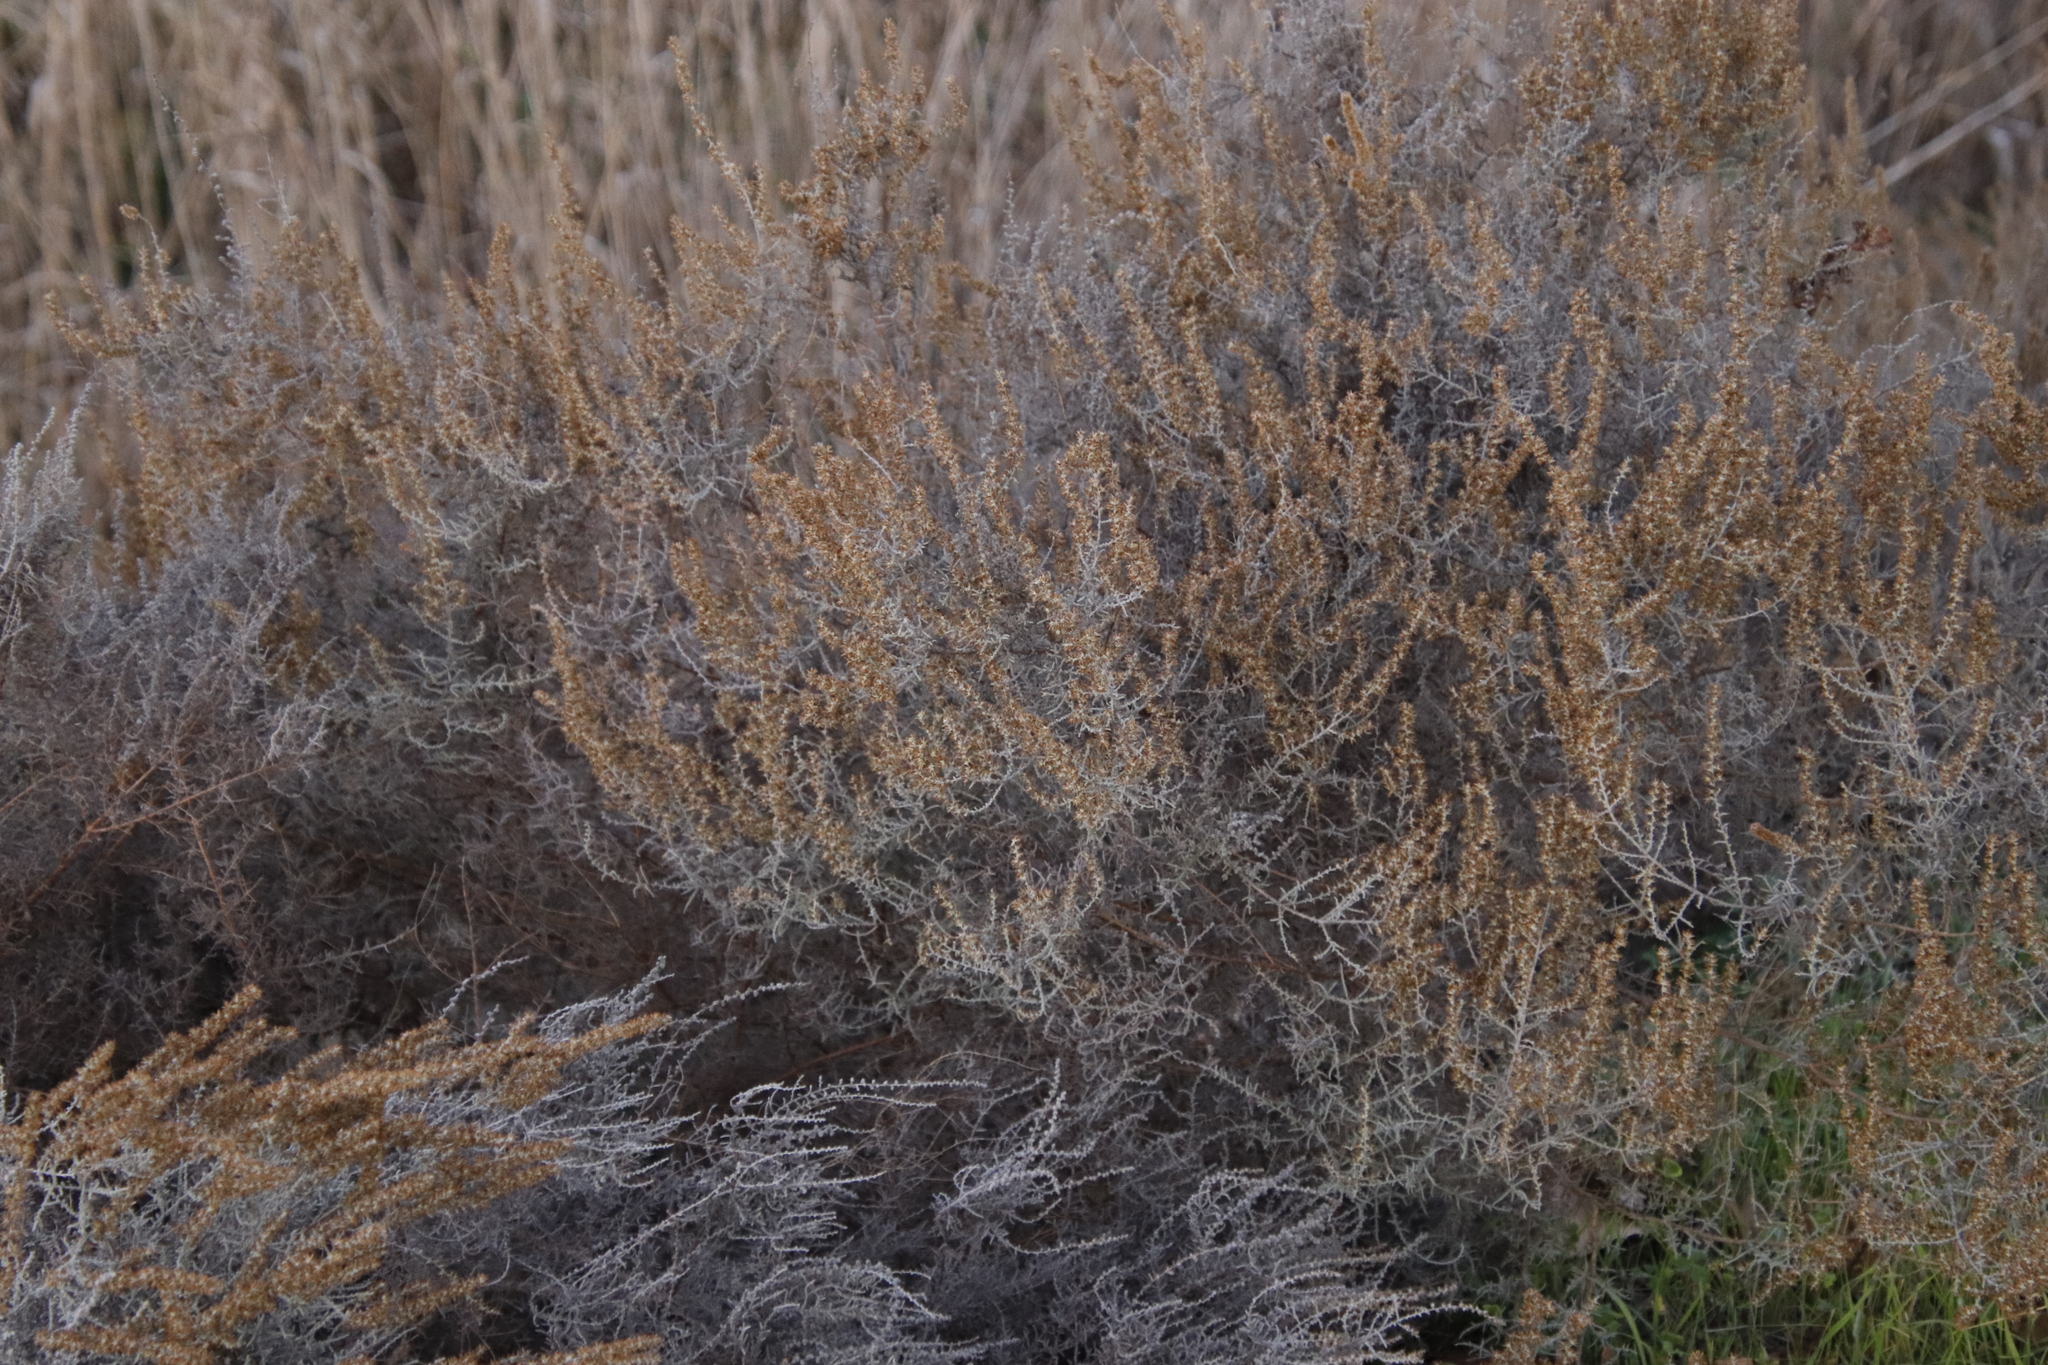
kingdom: Plantae
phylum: Tracheophyta
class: Magnoliopsida
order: Asterales
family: Asteraceae
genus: Seriphium
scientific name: Seriphium plumosum
